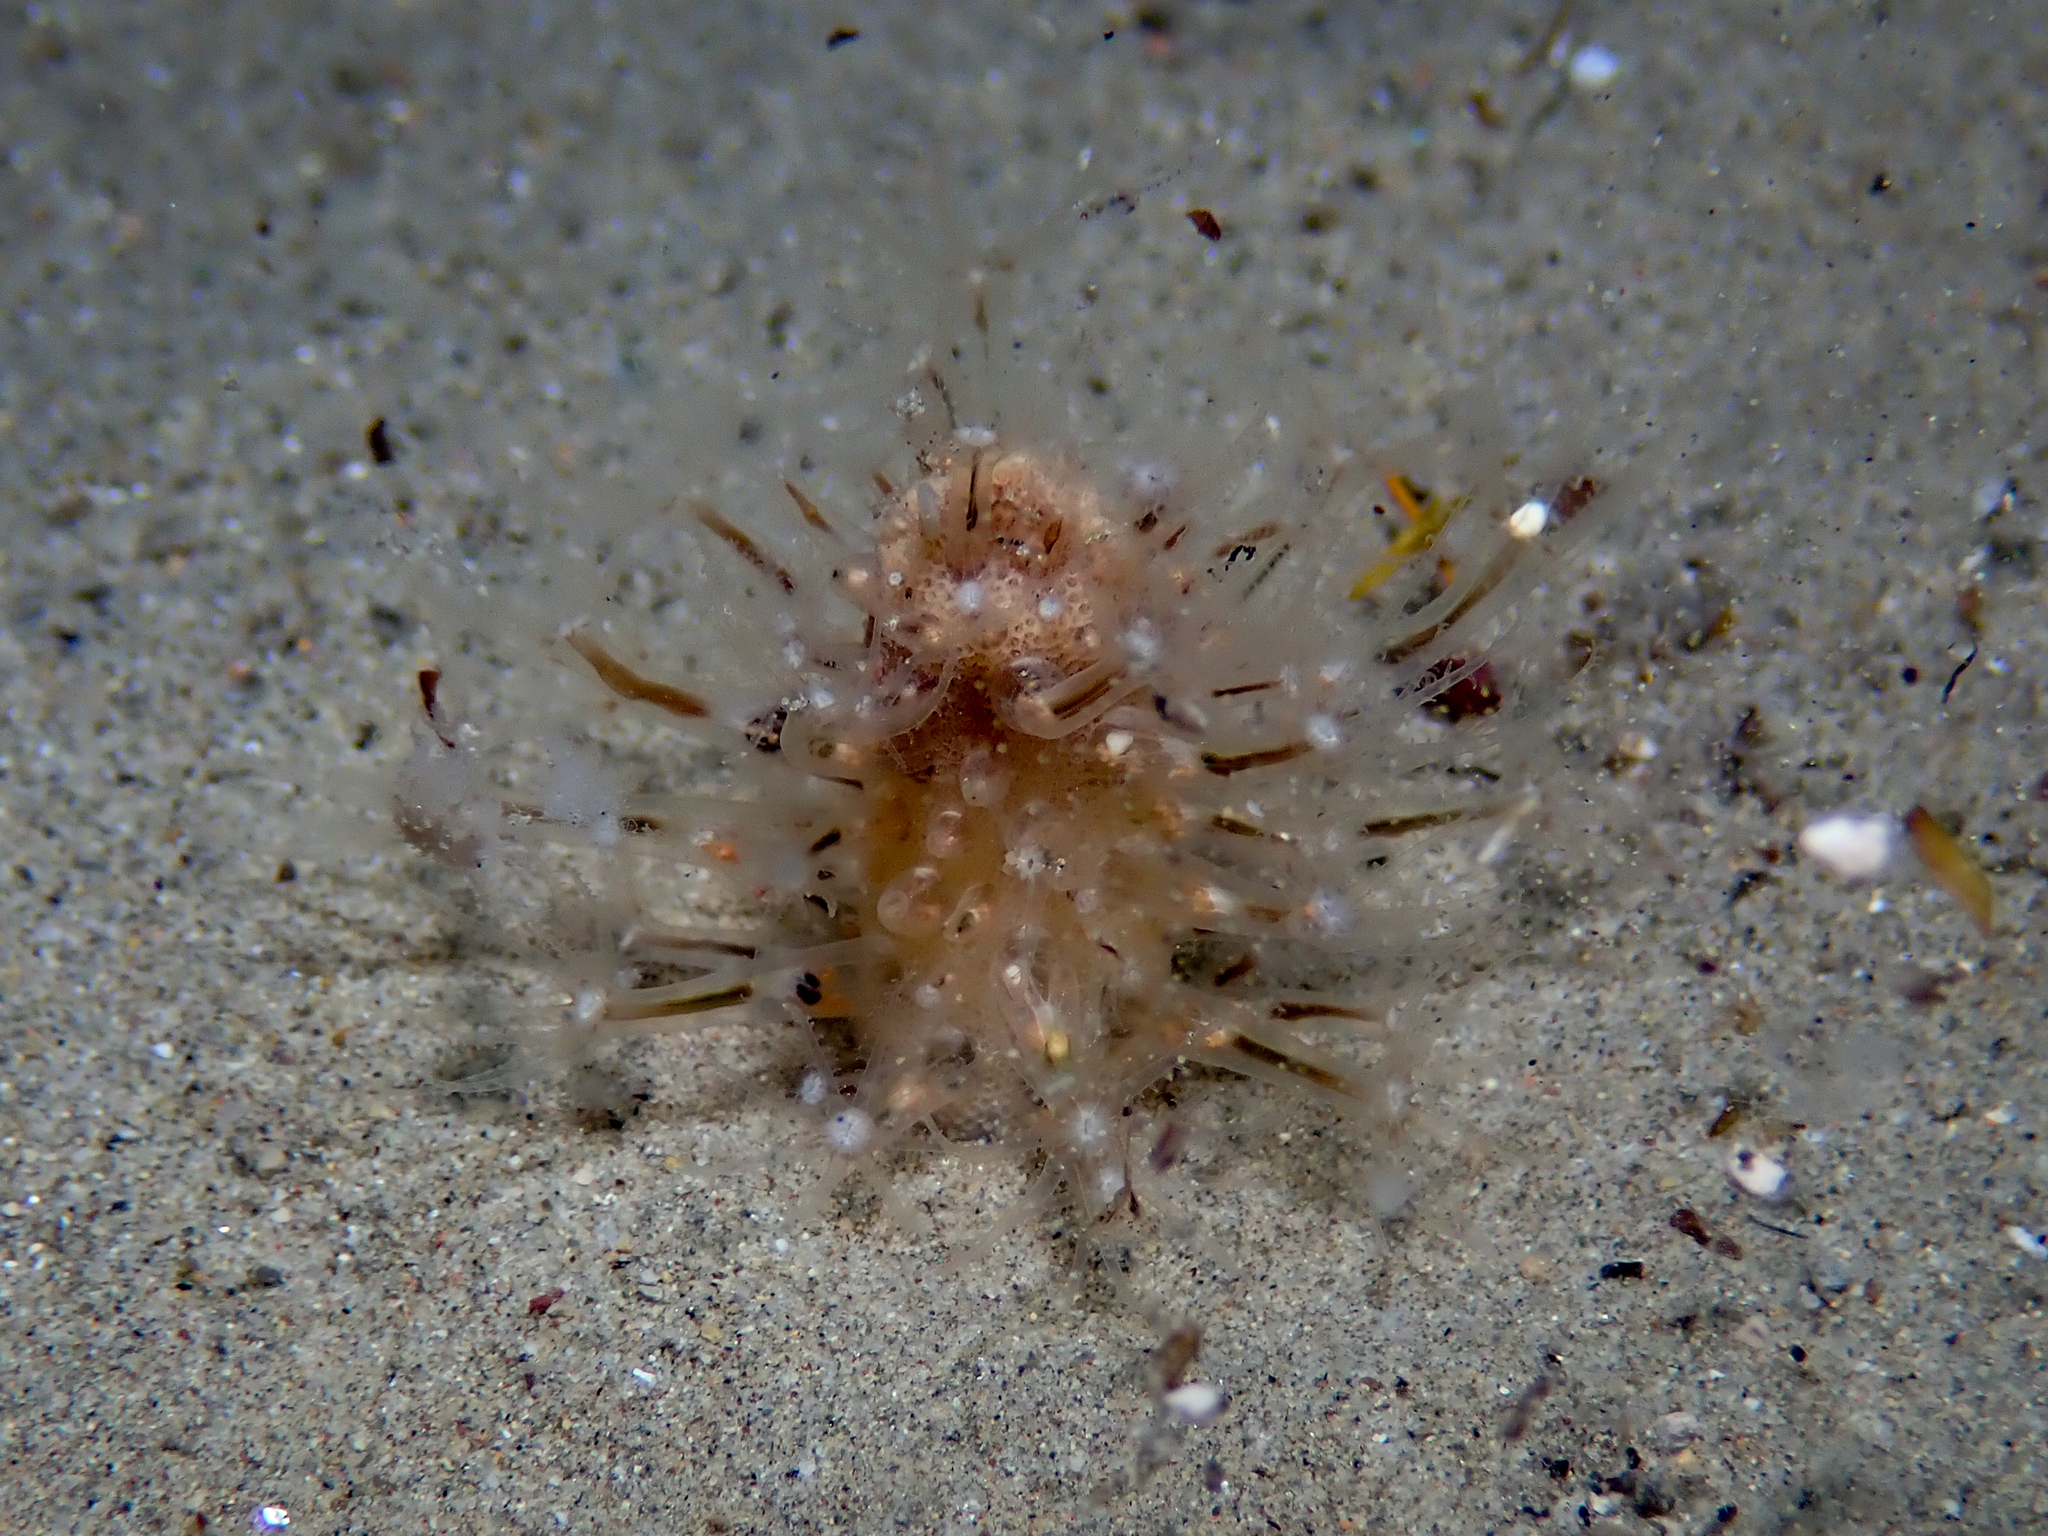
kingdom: Animalia
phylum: Cnidaria
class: Anthozoa
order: Scleralcyonacea
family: Veretillidae
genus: Cavernularia
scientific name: Cavernularia pusilla
